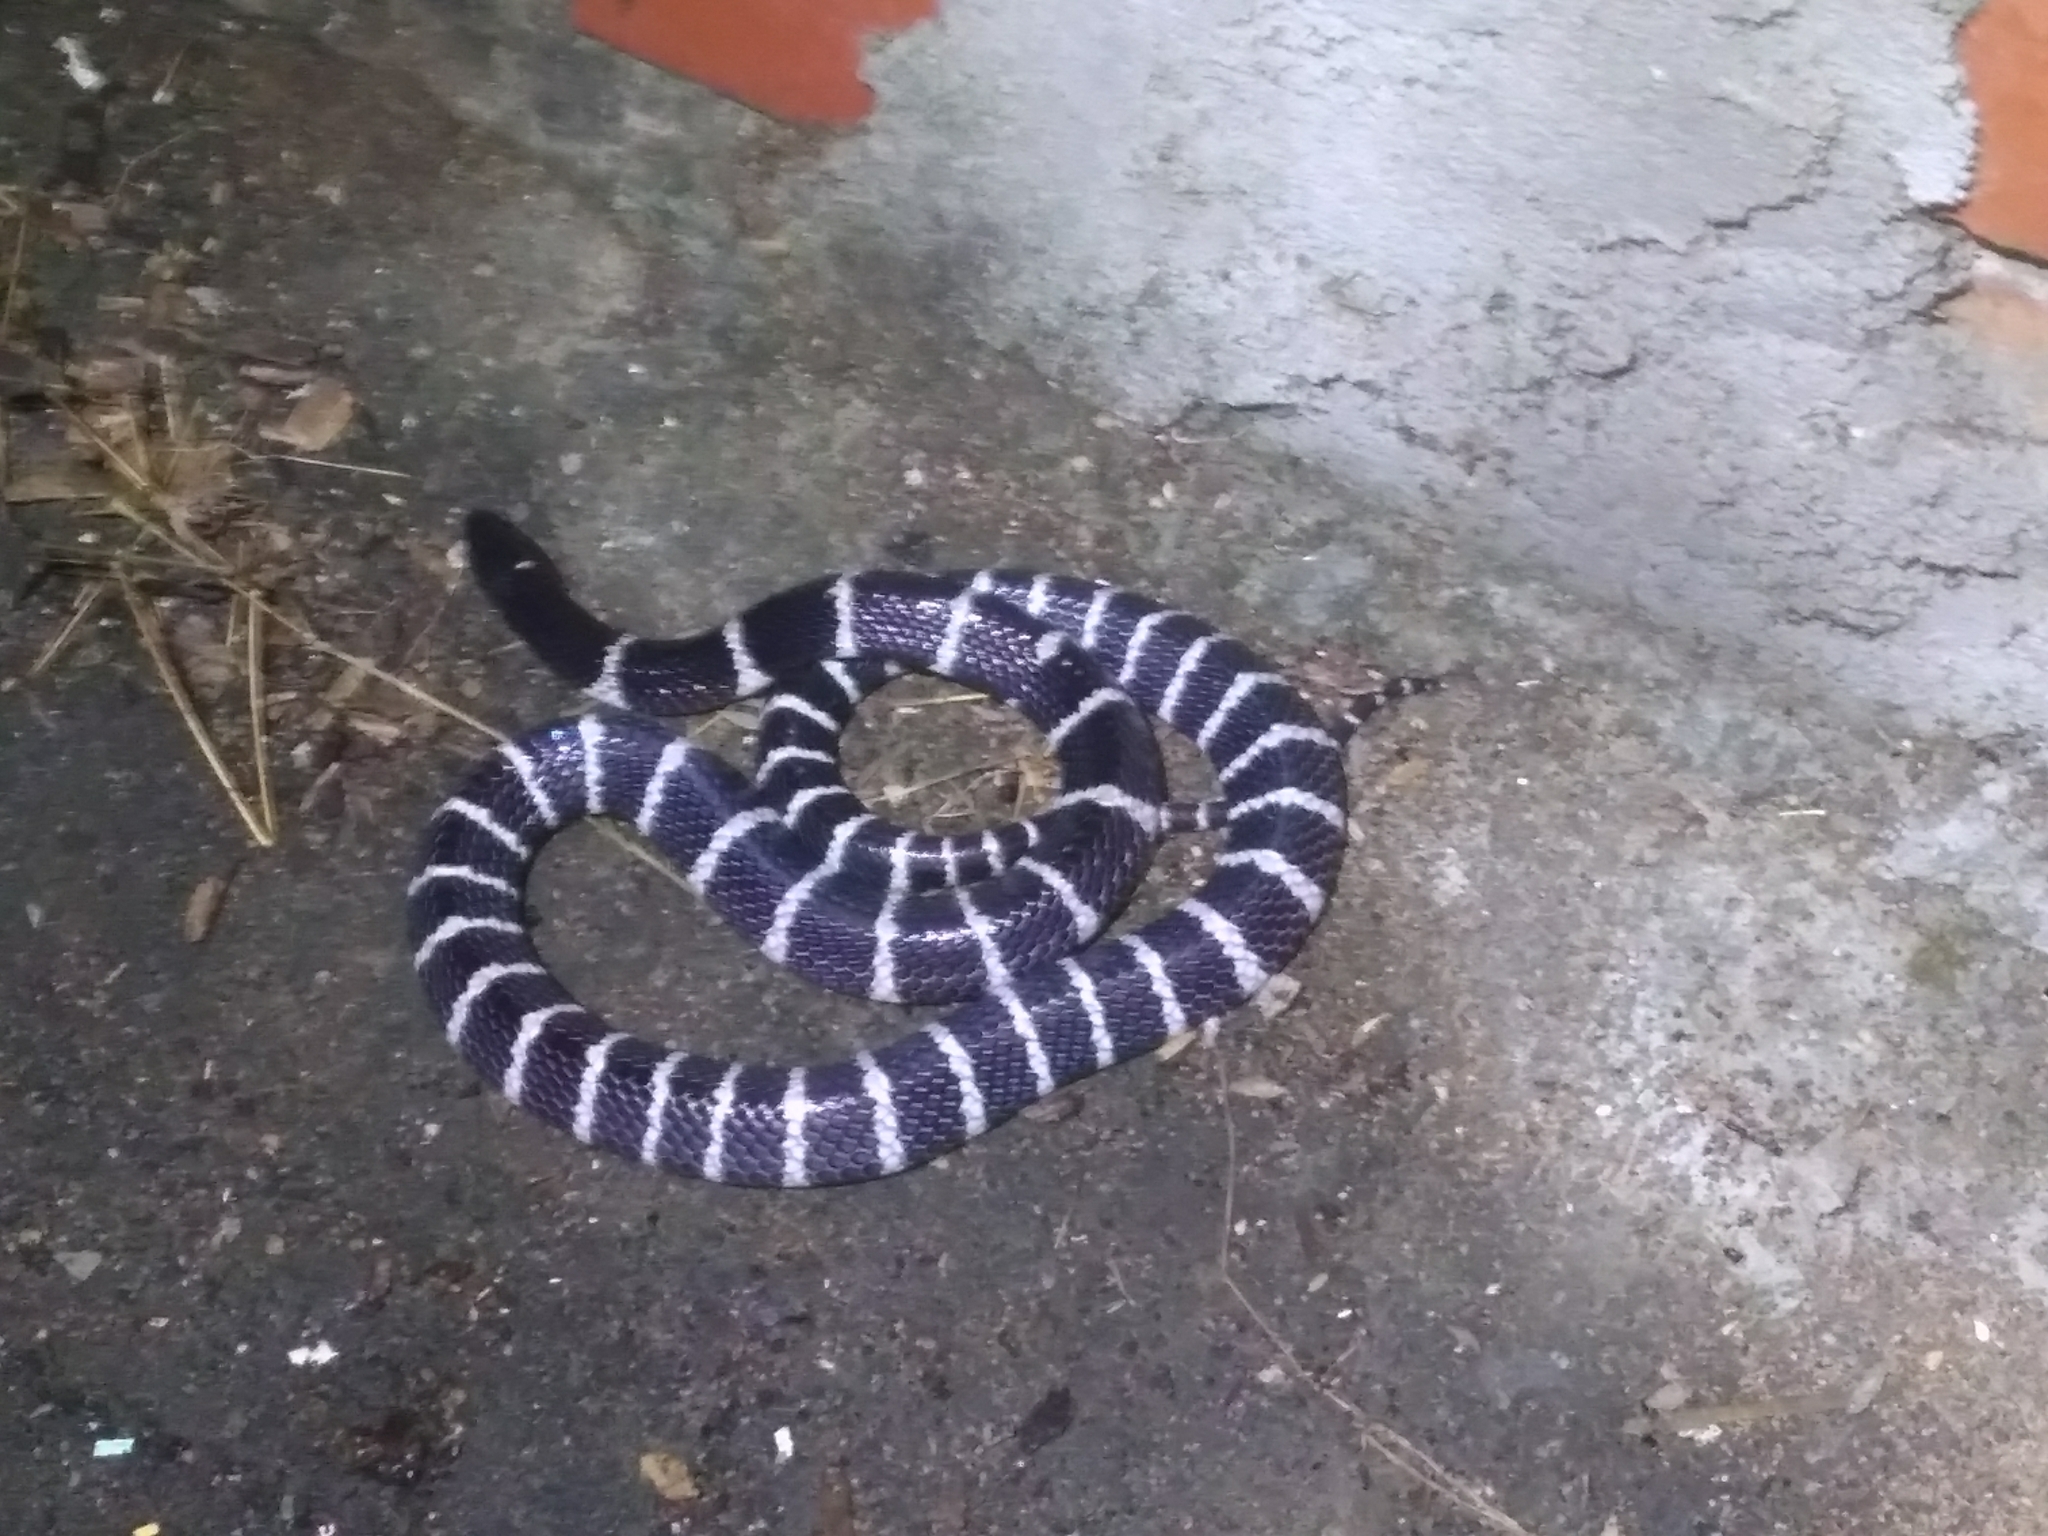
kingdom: Animalia
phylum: Chordata
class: Squamata
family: Elapidae
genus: Bungarus
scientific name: Bungarus multicinctus
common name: Many-banded krait
